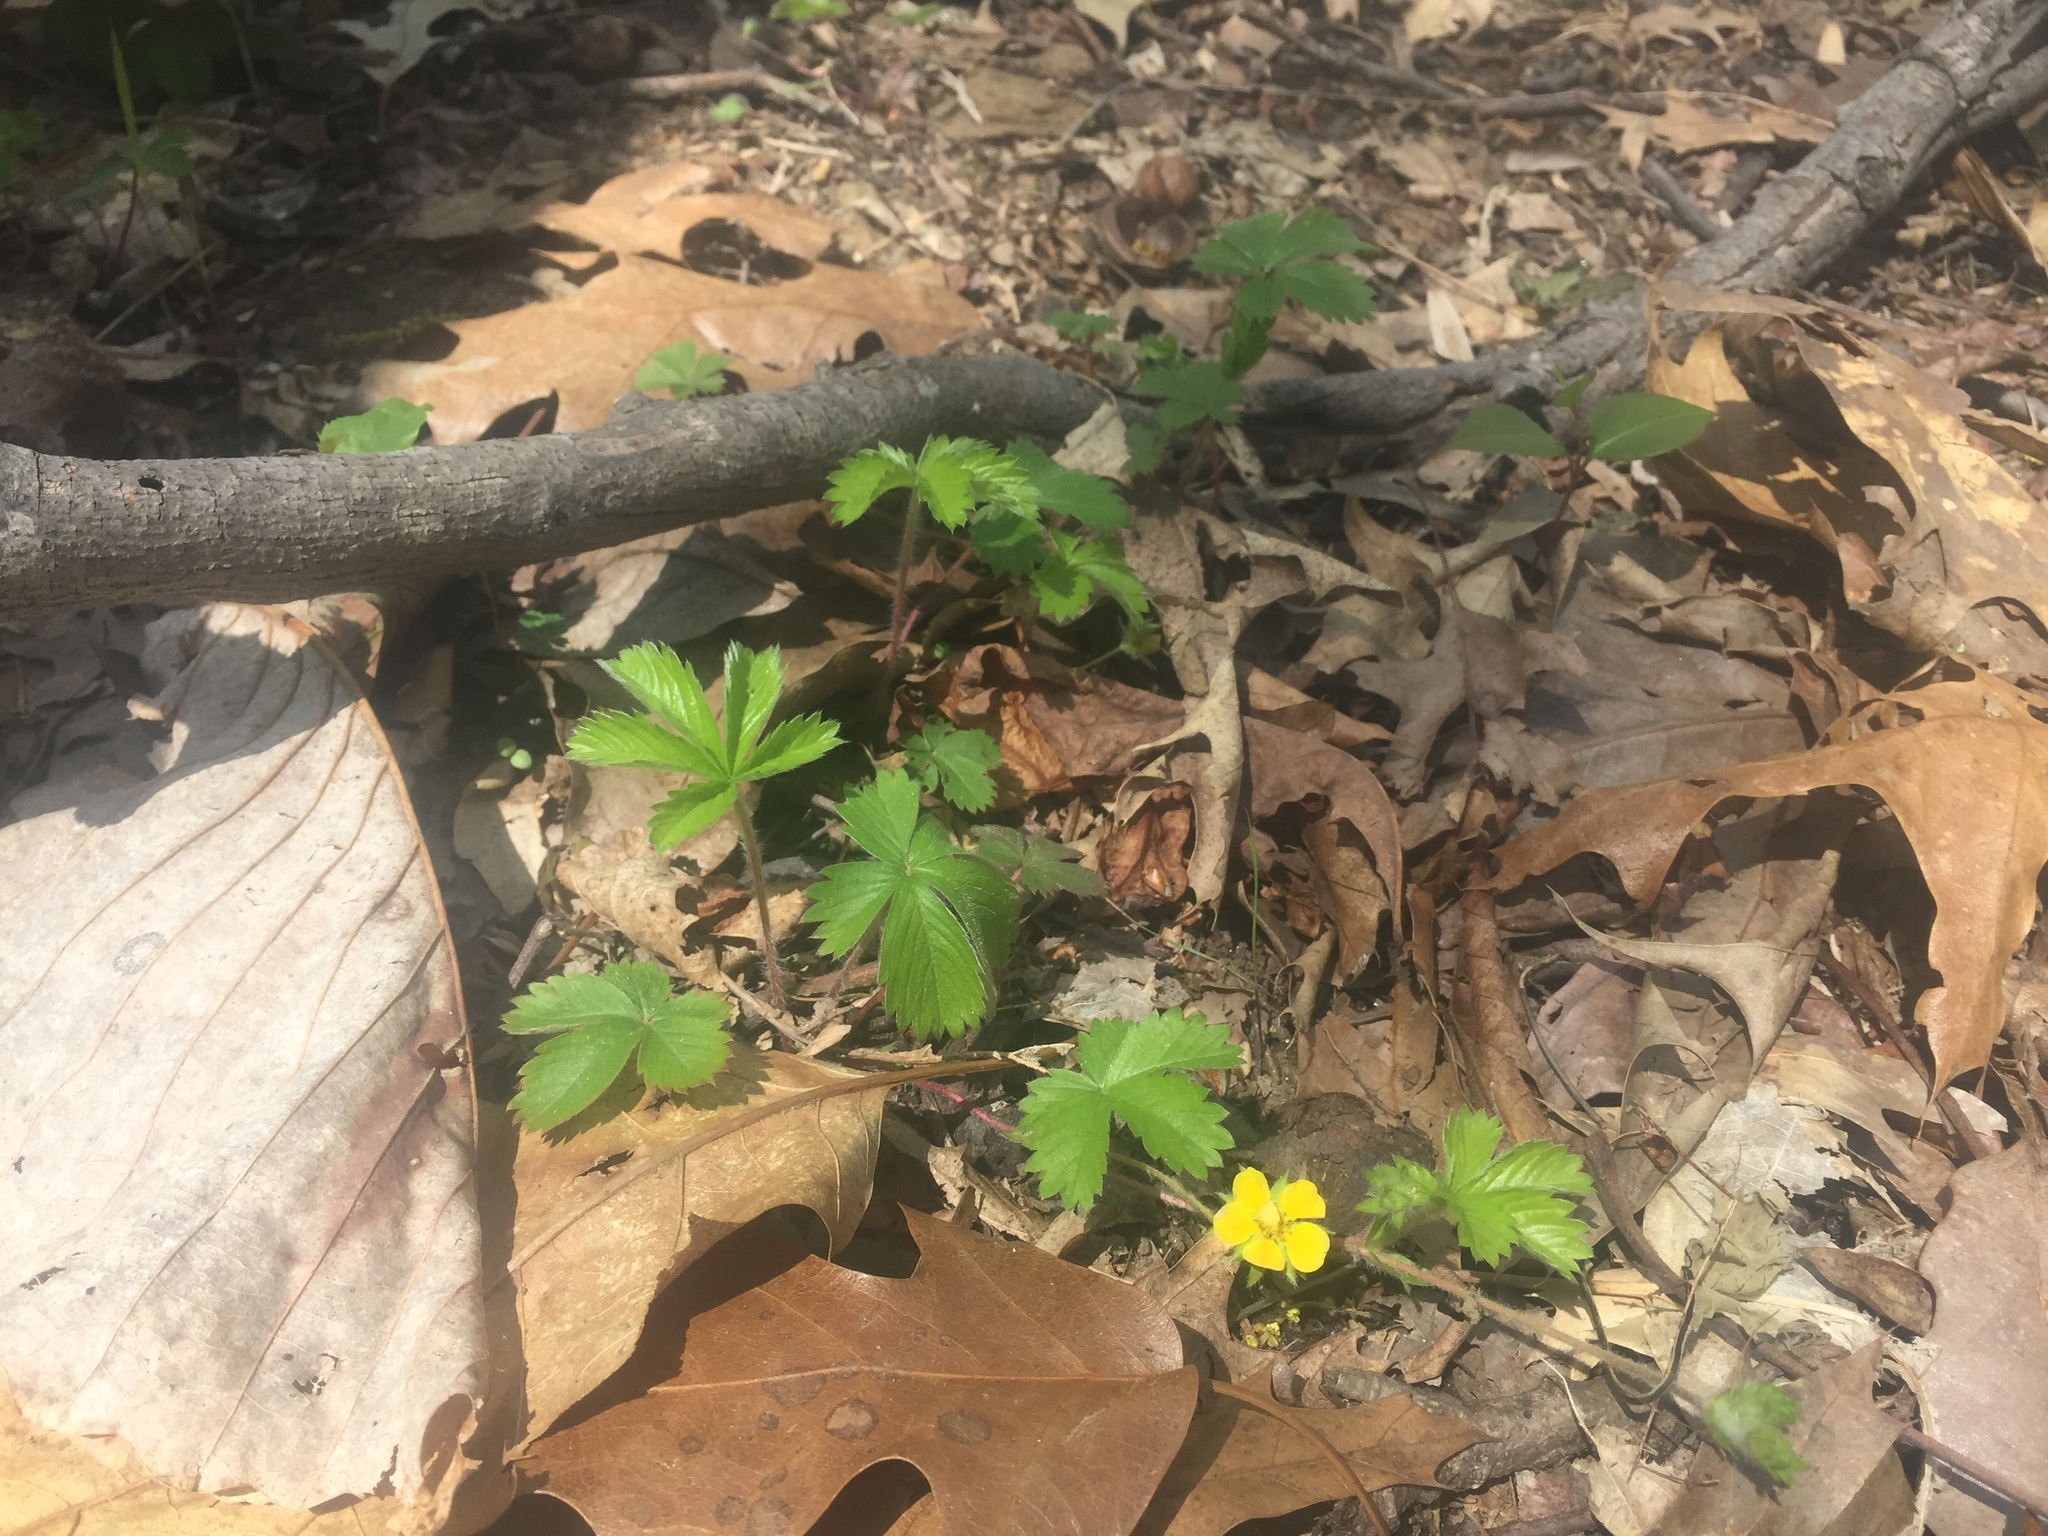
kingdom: Plantae
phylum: Tracheophyta
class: Magnoliopsida
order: Rosales
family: Rosaceae
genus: Potentilla
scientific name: Potentilla canadensis
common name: Canada cinquefoil
